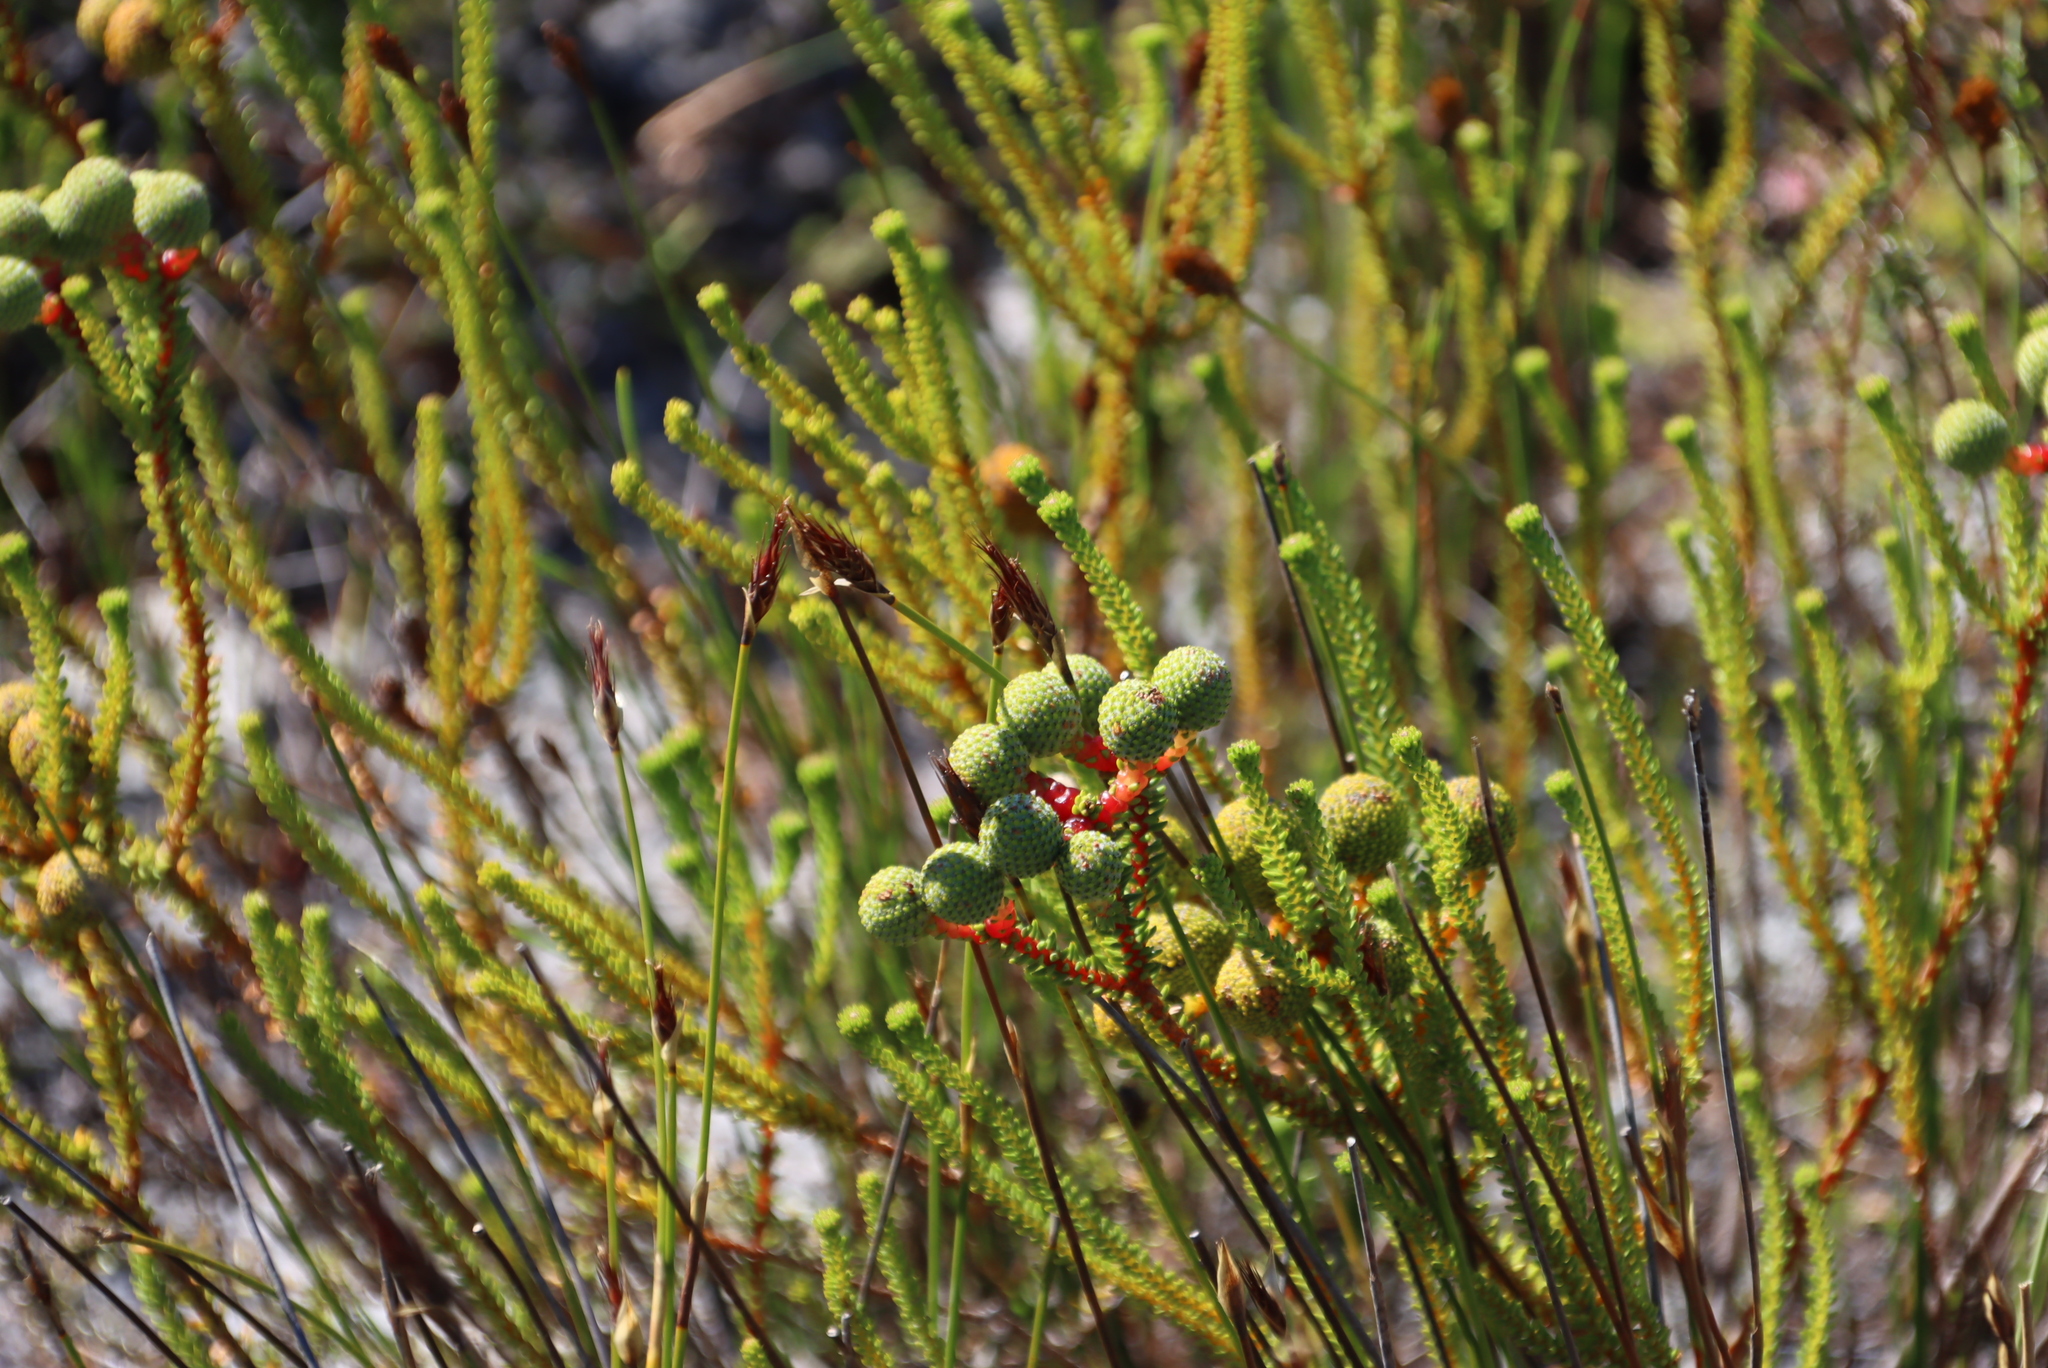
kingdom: Plantae
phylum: Tracheophyta
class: Magnoliopsida
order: Bruniales
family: Bruniaceae
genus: Berzelia
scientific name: Berzelia abrotanoides
